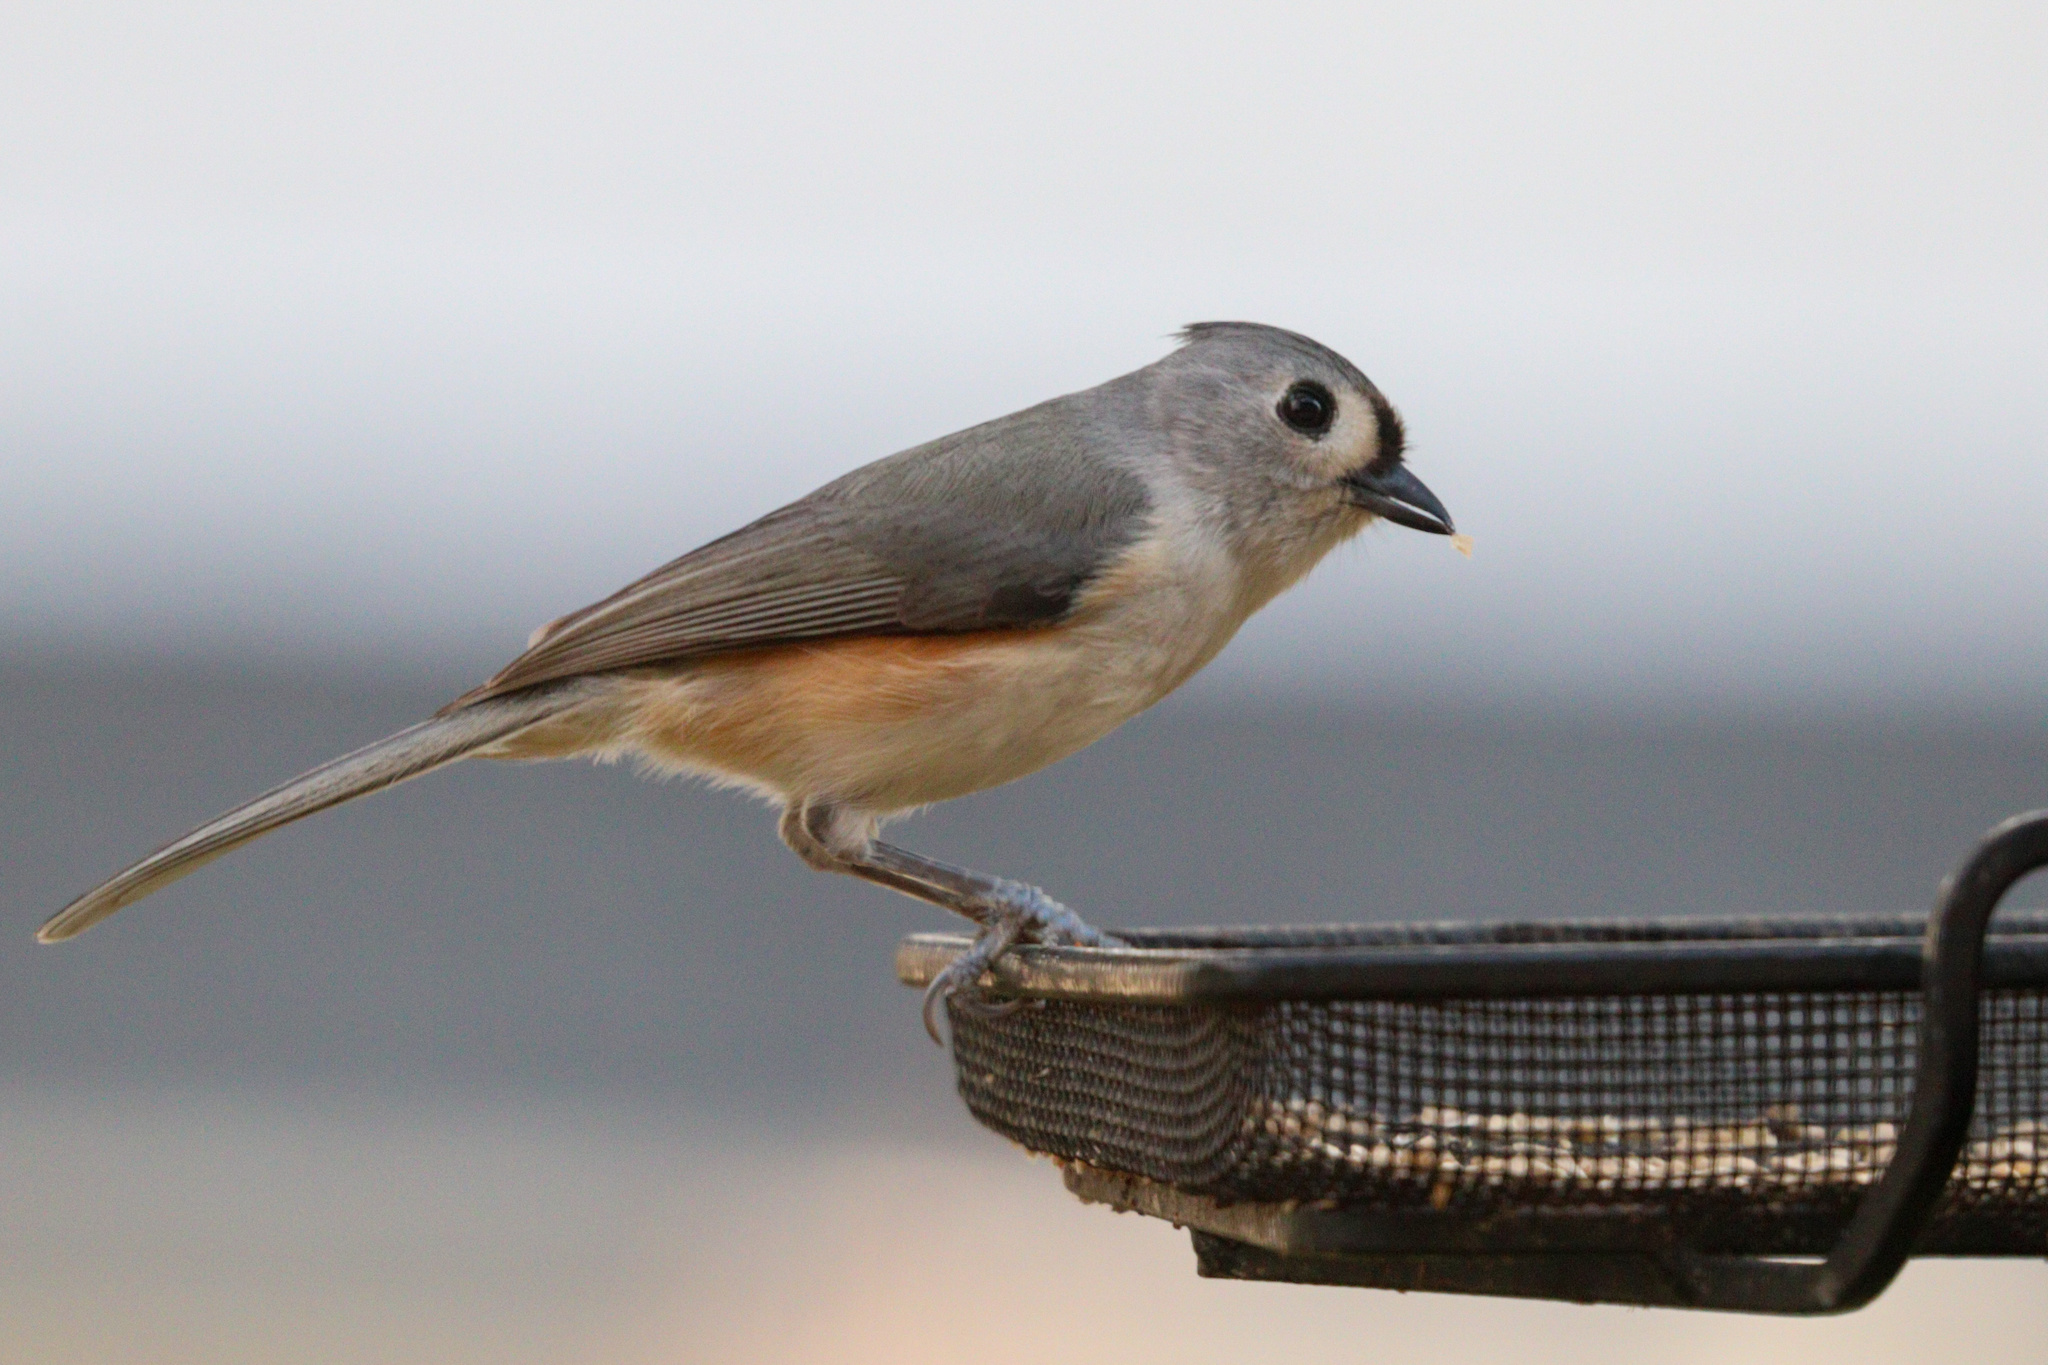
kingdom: Animalia
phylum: Chordata
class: Aves
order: Passeriformes
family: Paridae
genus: Baeolophus
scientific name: Baeolophus bicolor
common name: Tufted titmouse
